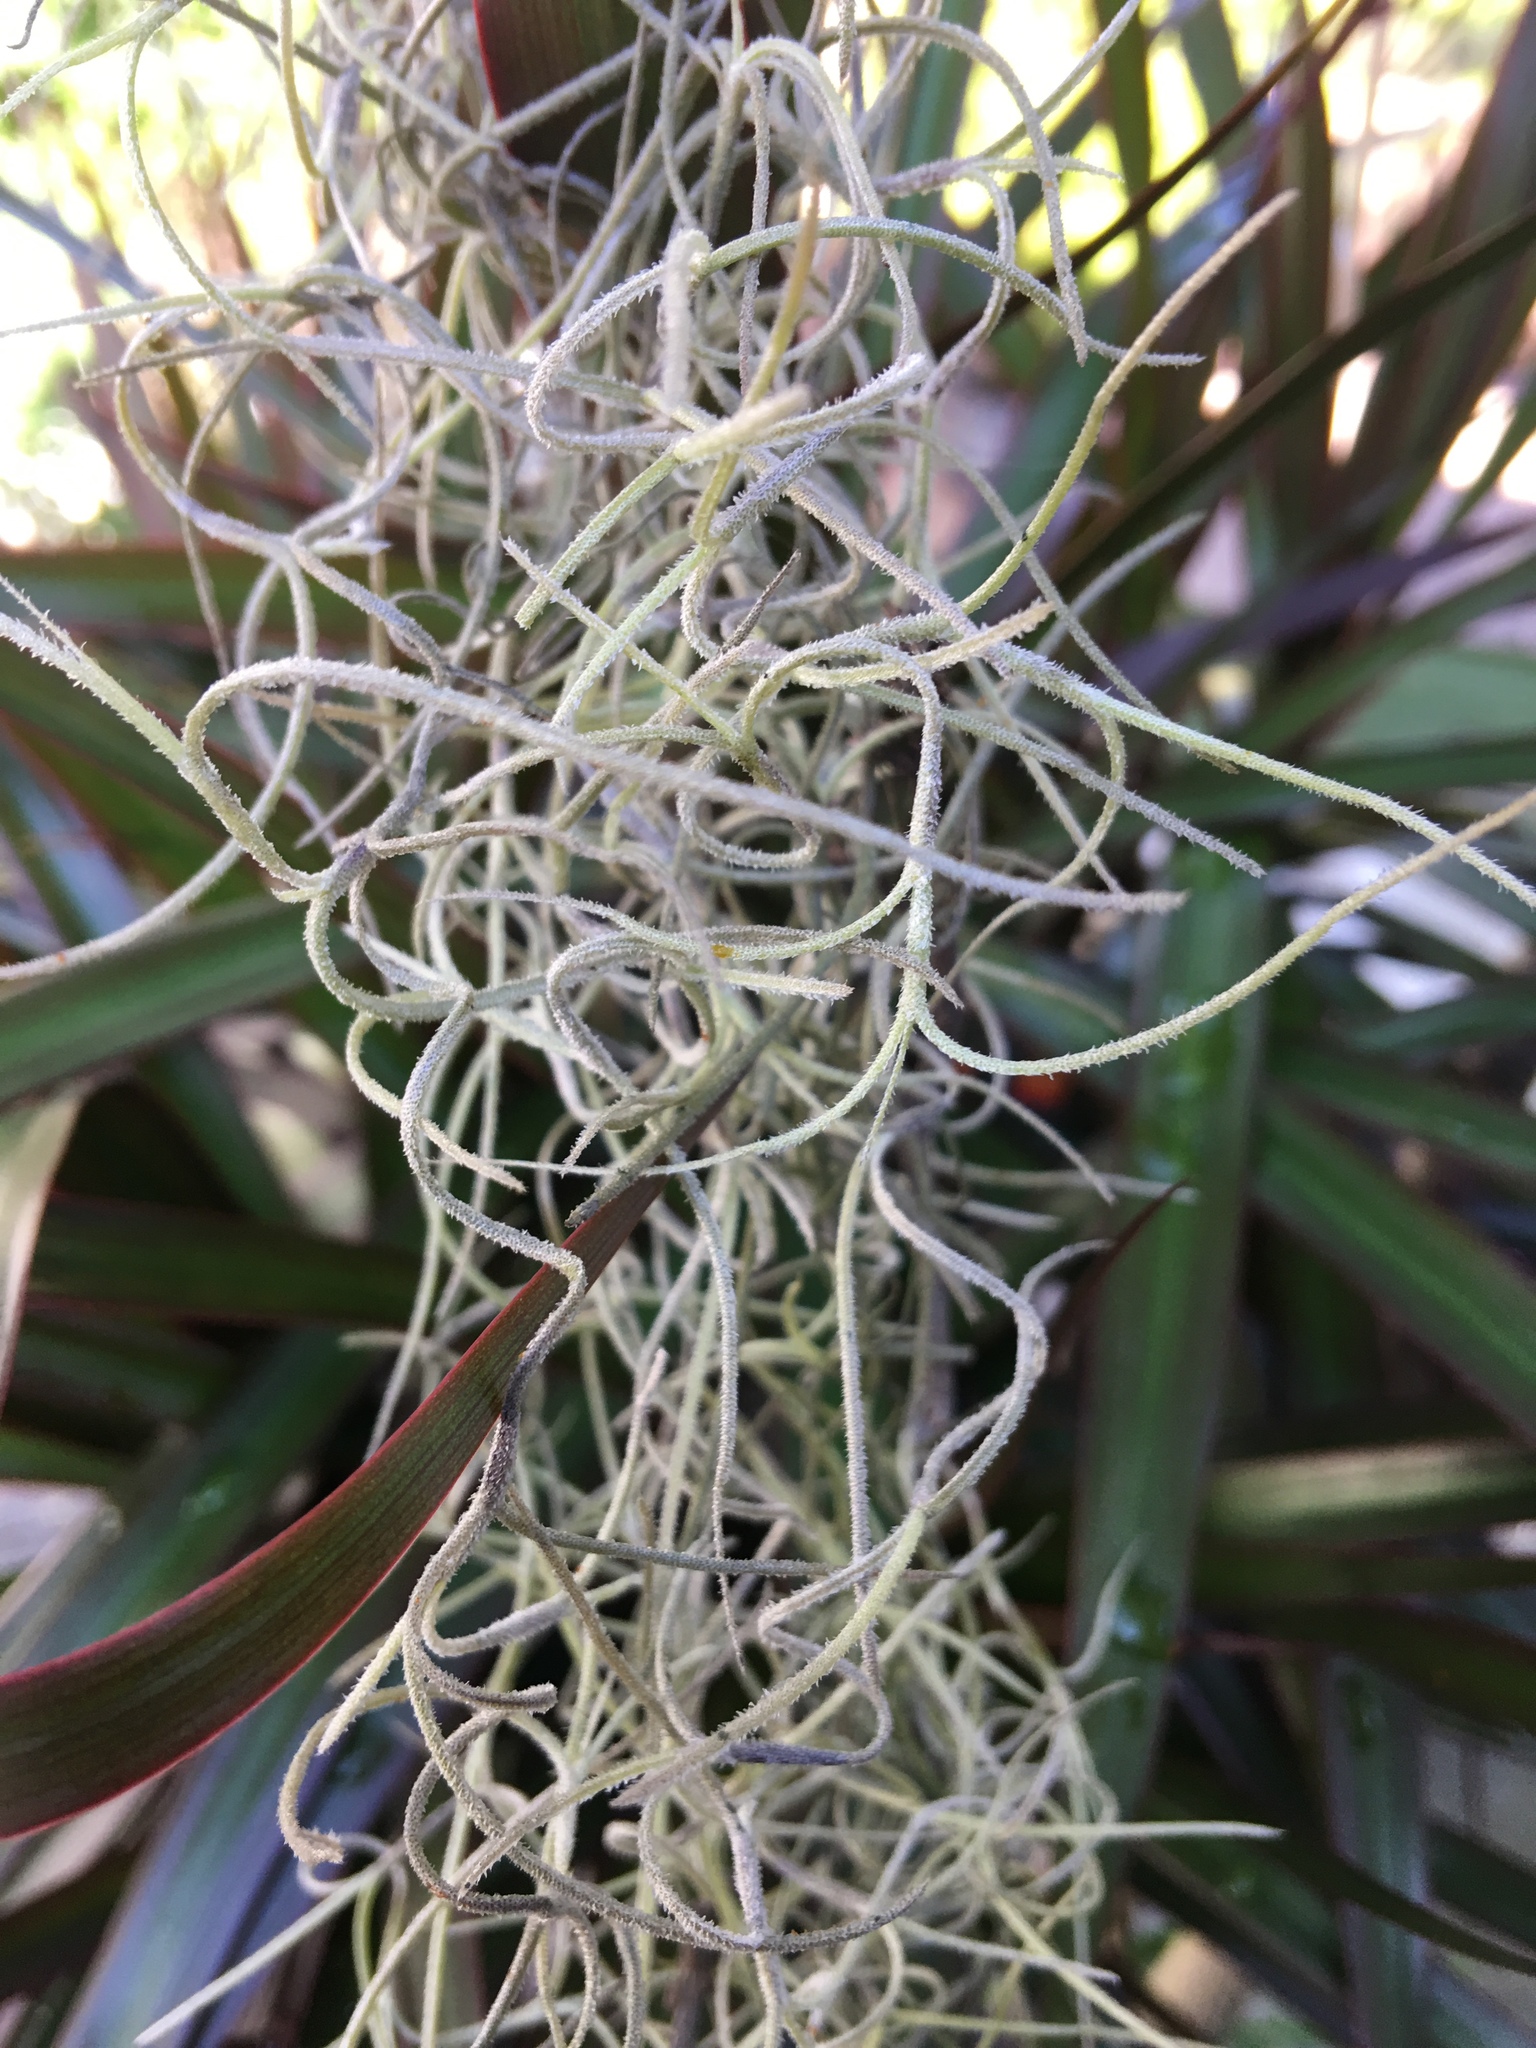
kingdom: Plantae
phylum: Tracheophyta
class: Liliopsida
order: Poales
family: Bromeliaceae
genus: Tillandsia
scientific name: Tillandsia usneoides
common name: Spanish moss
